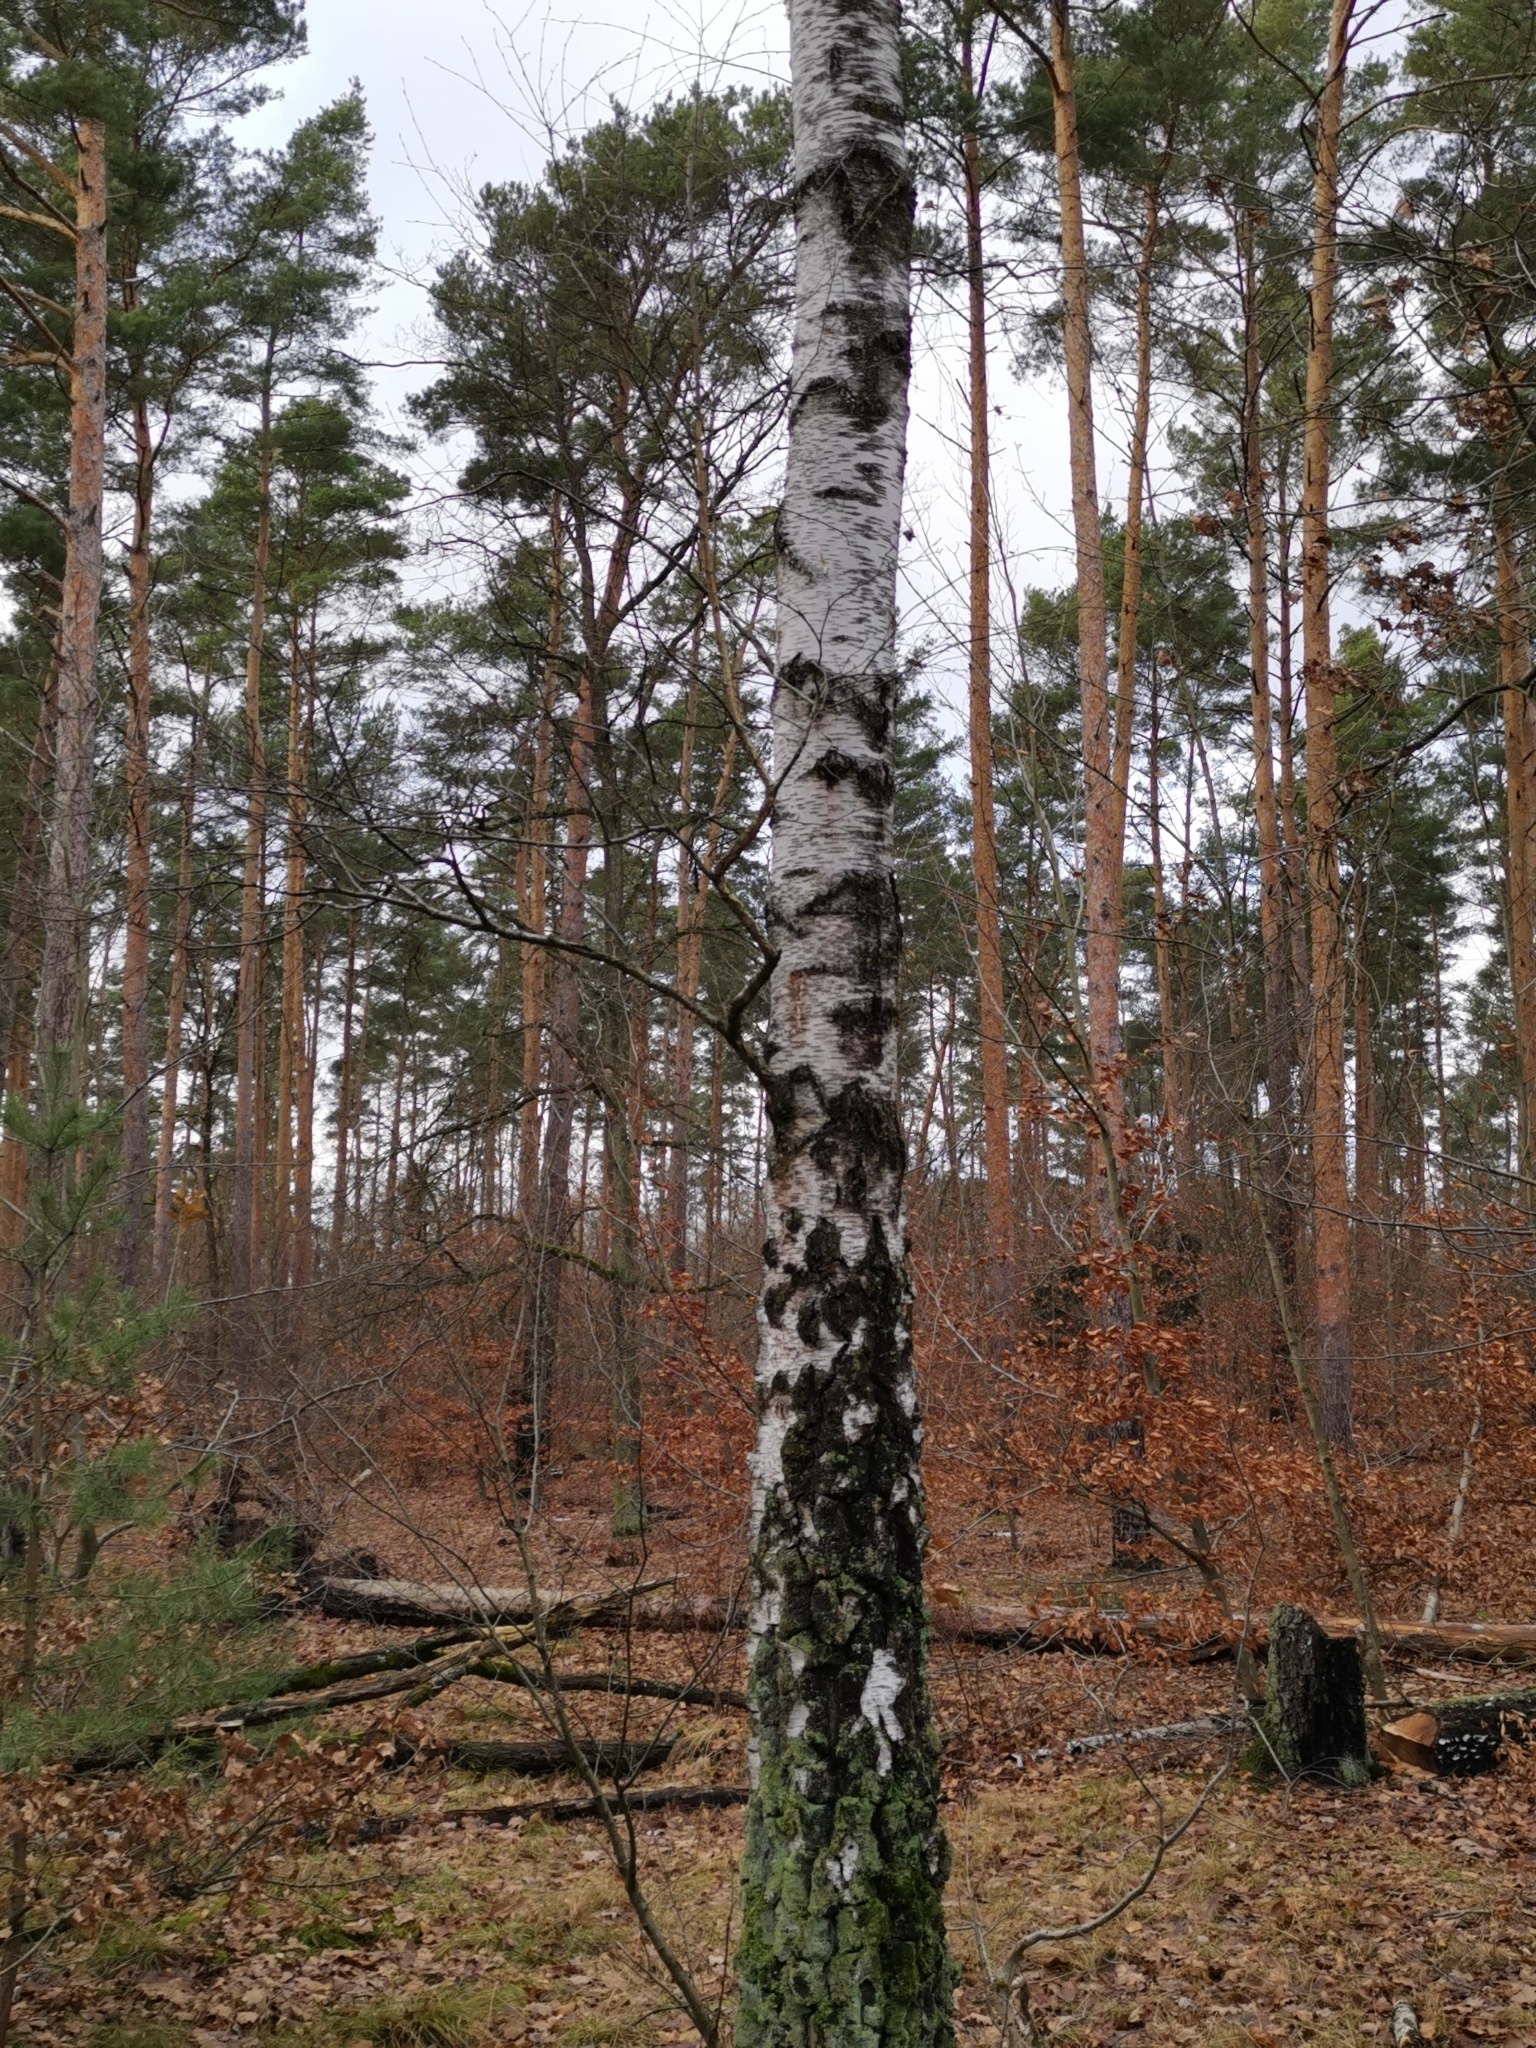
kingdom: Plantae
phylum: Tracheophyta
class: Magnoliopsida
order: Fagales
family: Betulaceae
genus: Betula
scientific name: Betula pendula
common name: Silver birch
